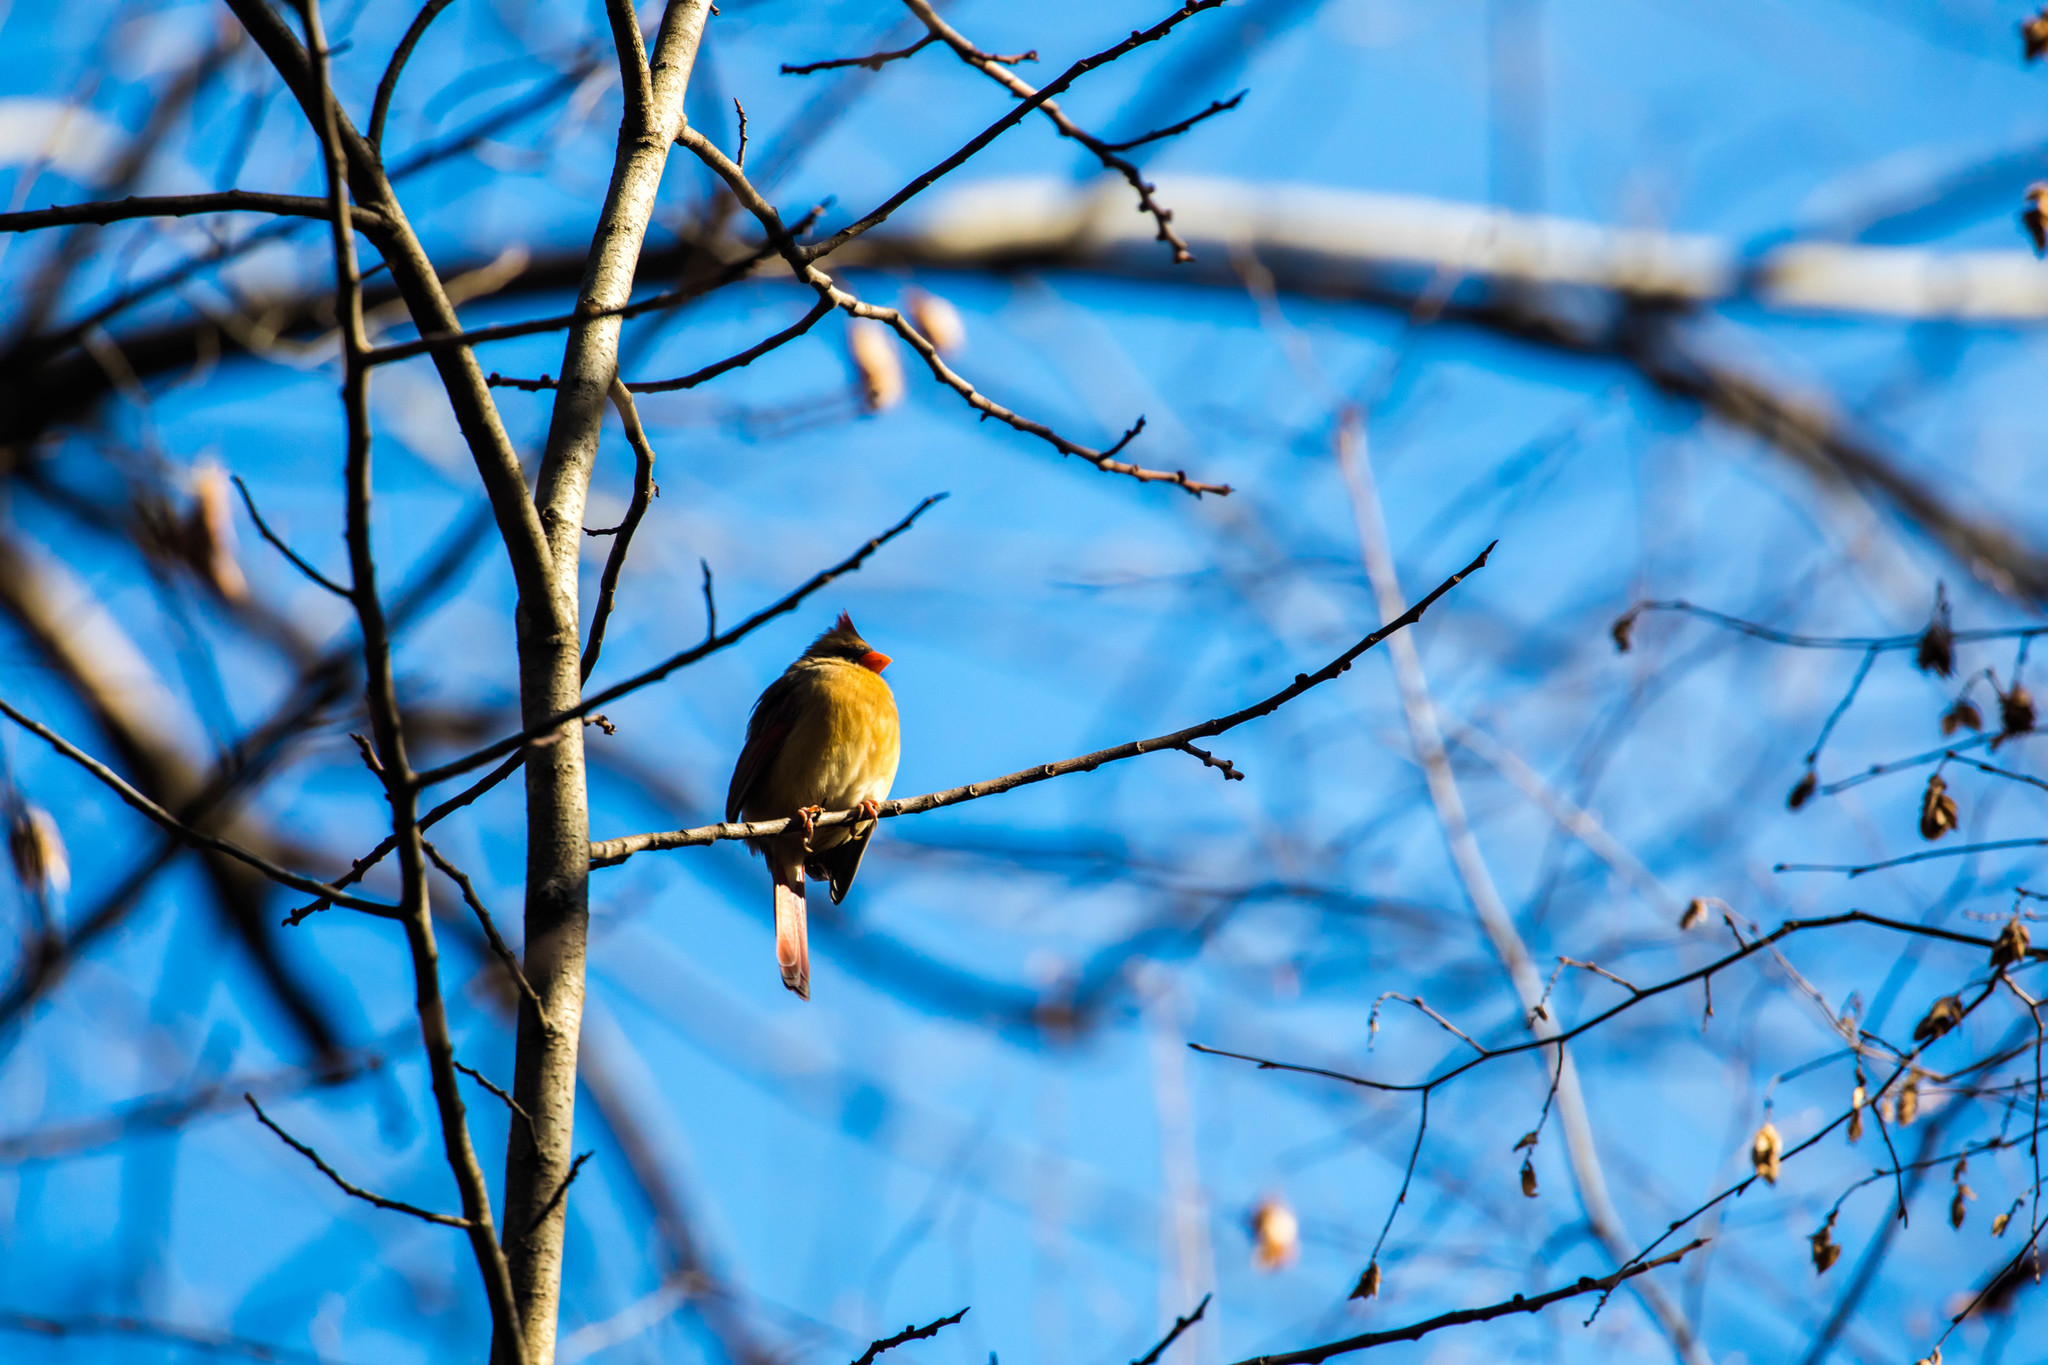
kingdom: Animalia
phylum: Chordata
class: Aves
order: Passeriformes
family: Cardinalidae
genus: Cardinalis
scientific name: Cardinalis cardinalis
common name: Northern cardinal
